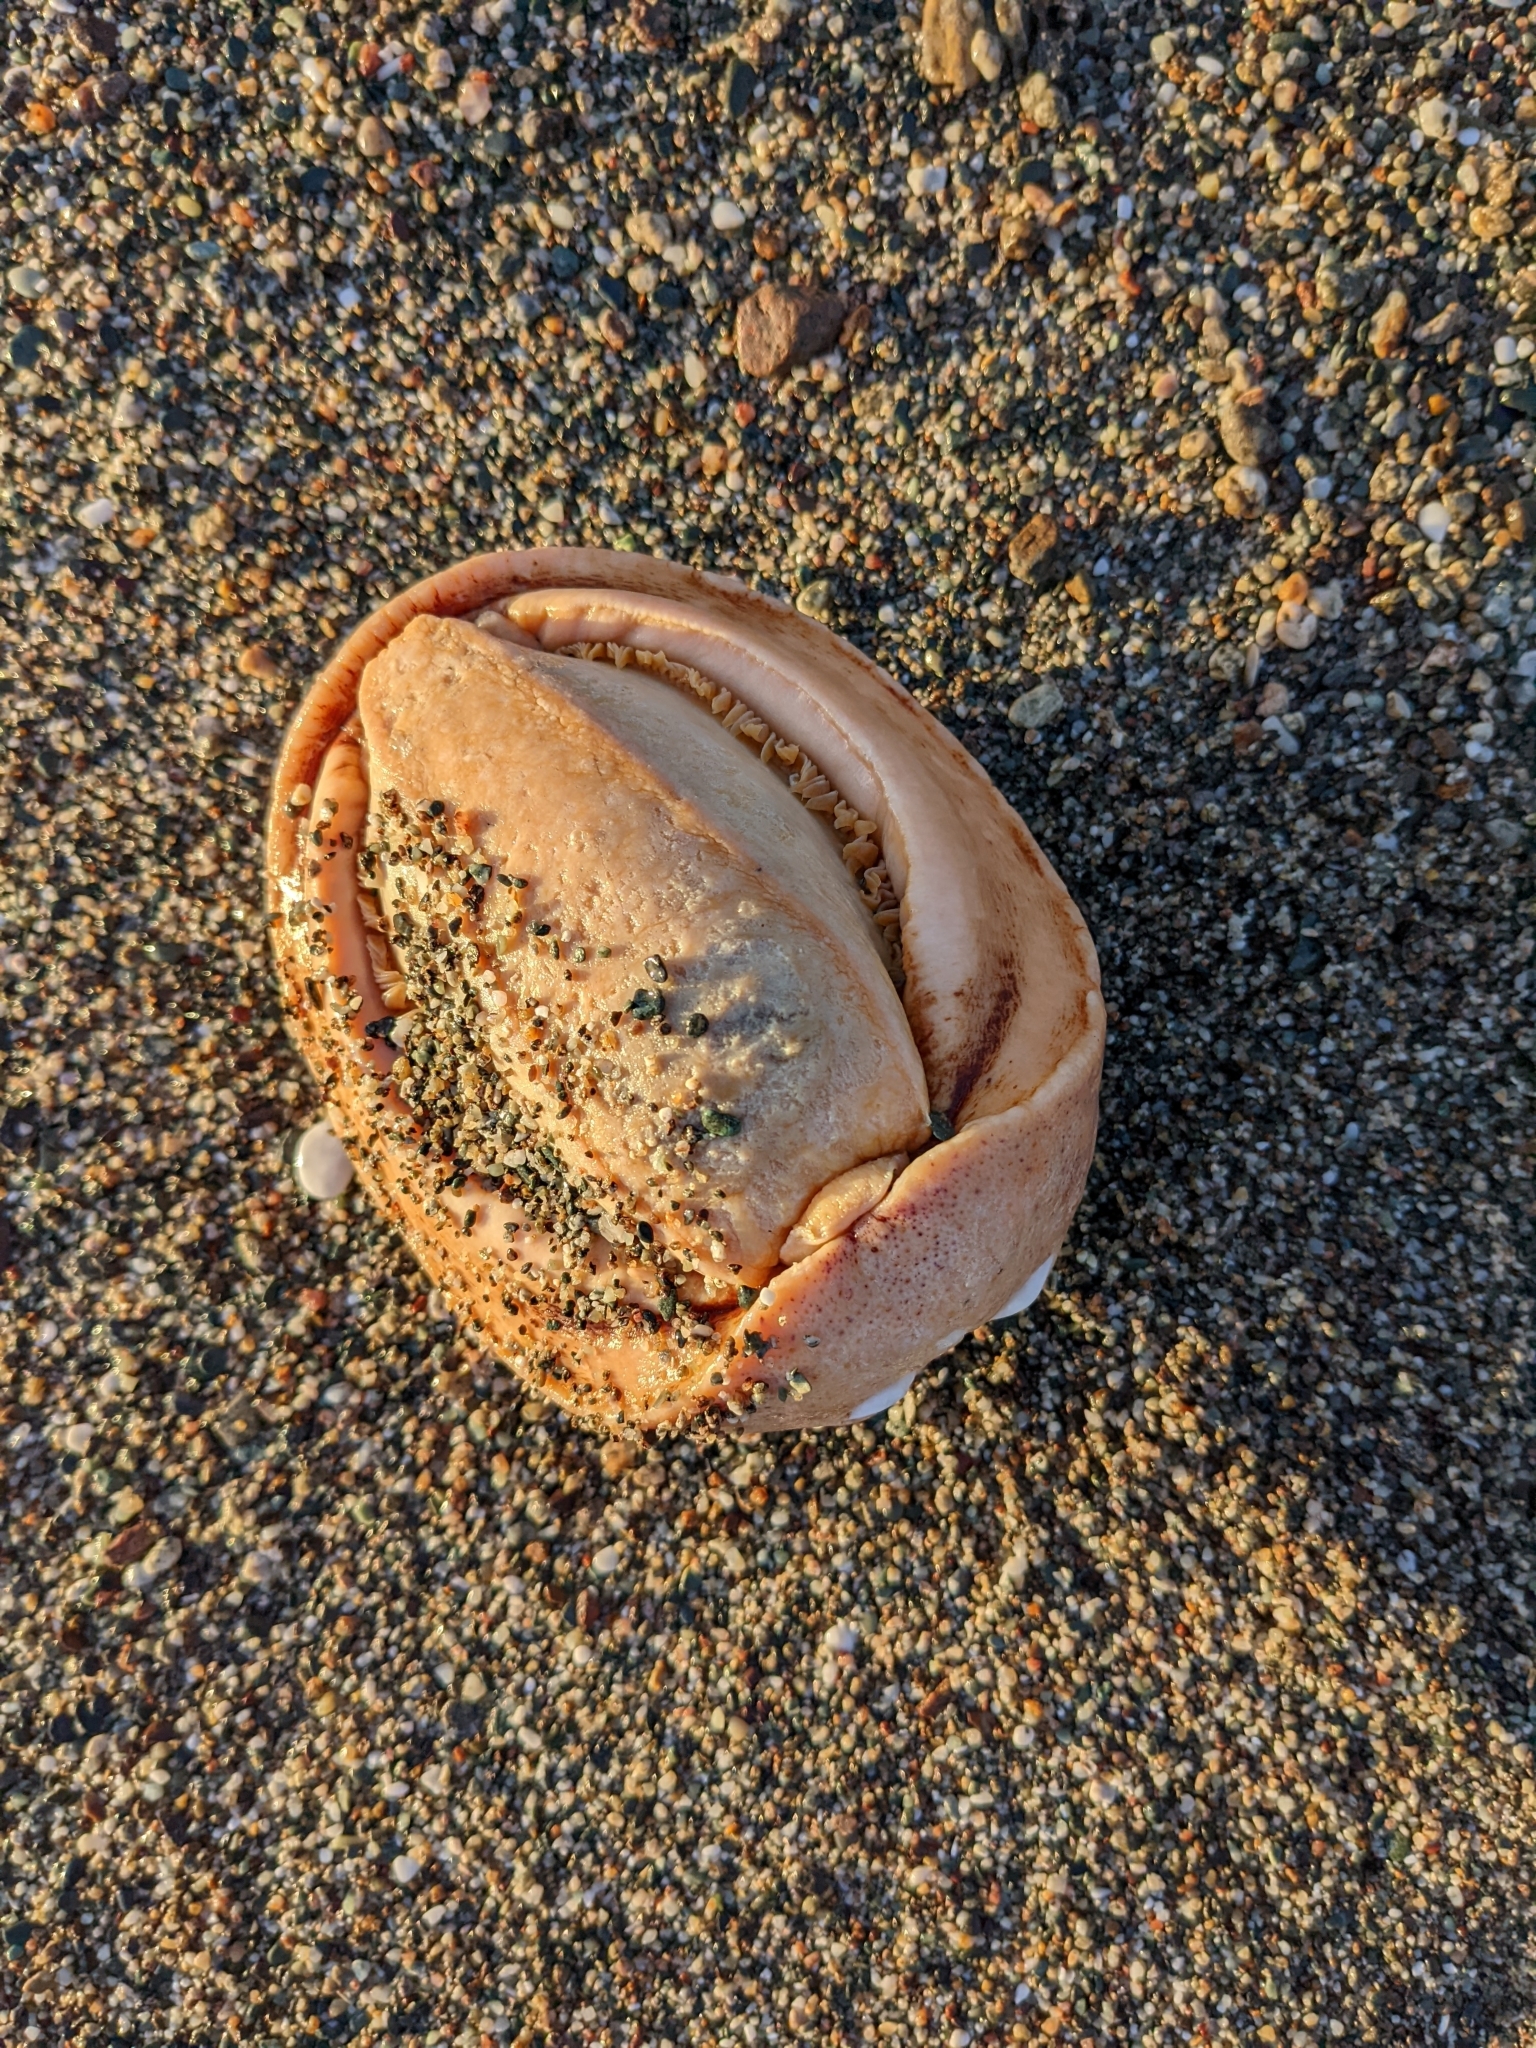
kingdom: Animalia
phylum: Mollusca
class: Polyplacophora
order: Chitonida
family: Acanthochitonidae
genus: Cryptochiton
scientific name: Cryptochiton stelleri
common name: Giant pacific chiton
